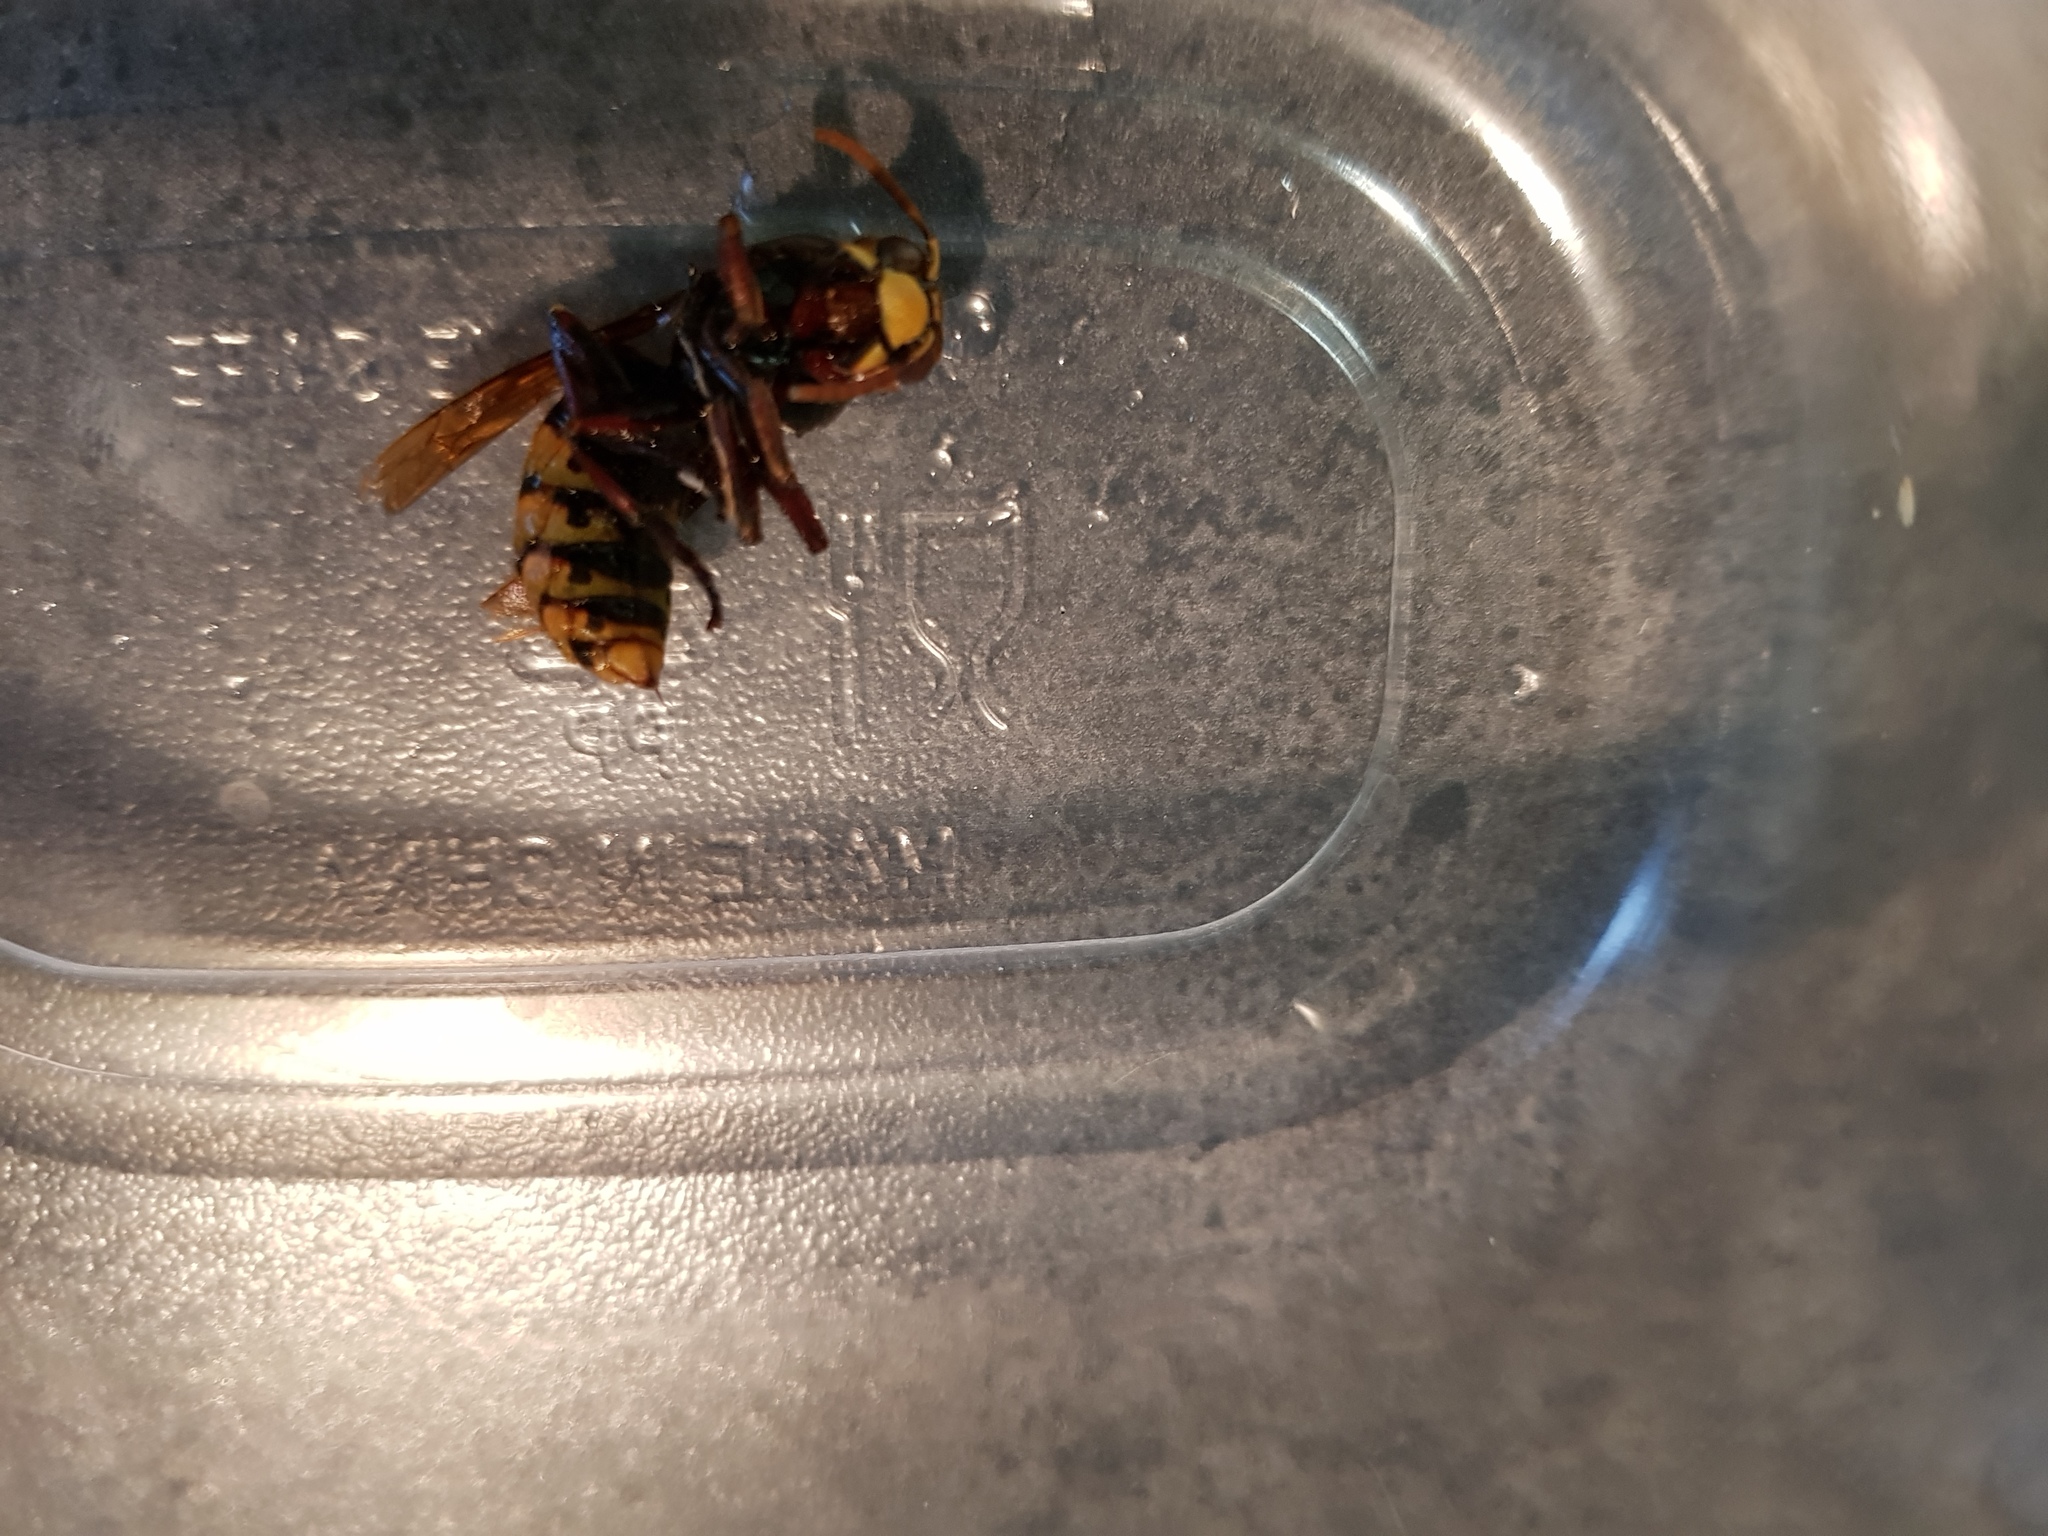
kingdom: Animalia
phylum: Arthropoda
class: Insecta
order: Hymenoptera
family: Vespidae
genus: Vespa
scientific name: Vespa crabro
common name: Hornet
